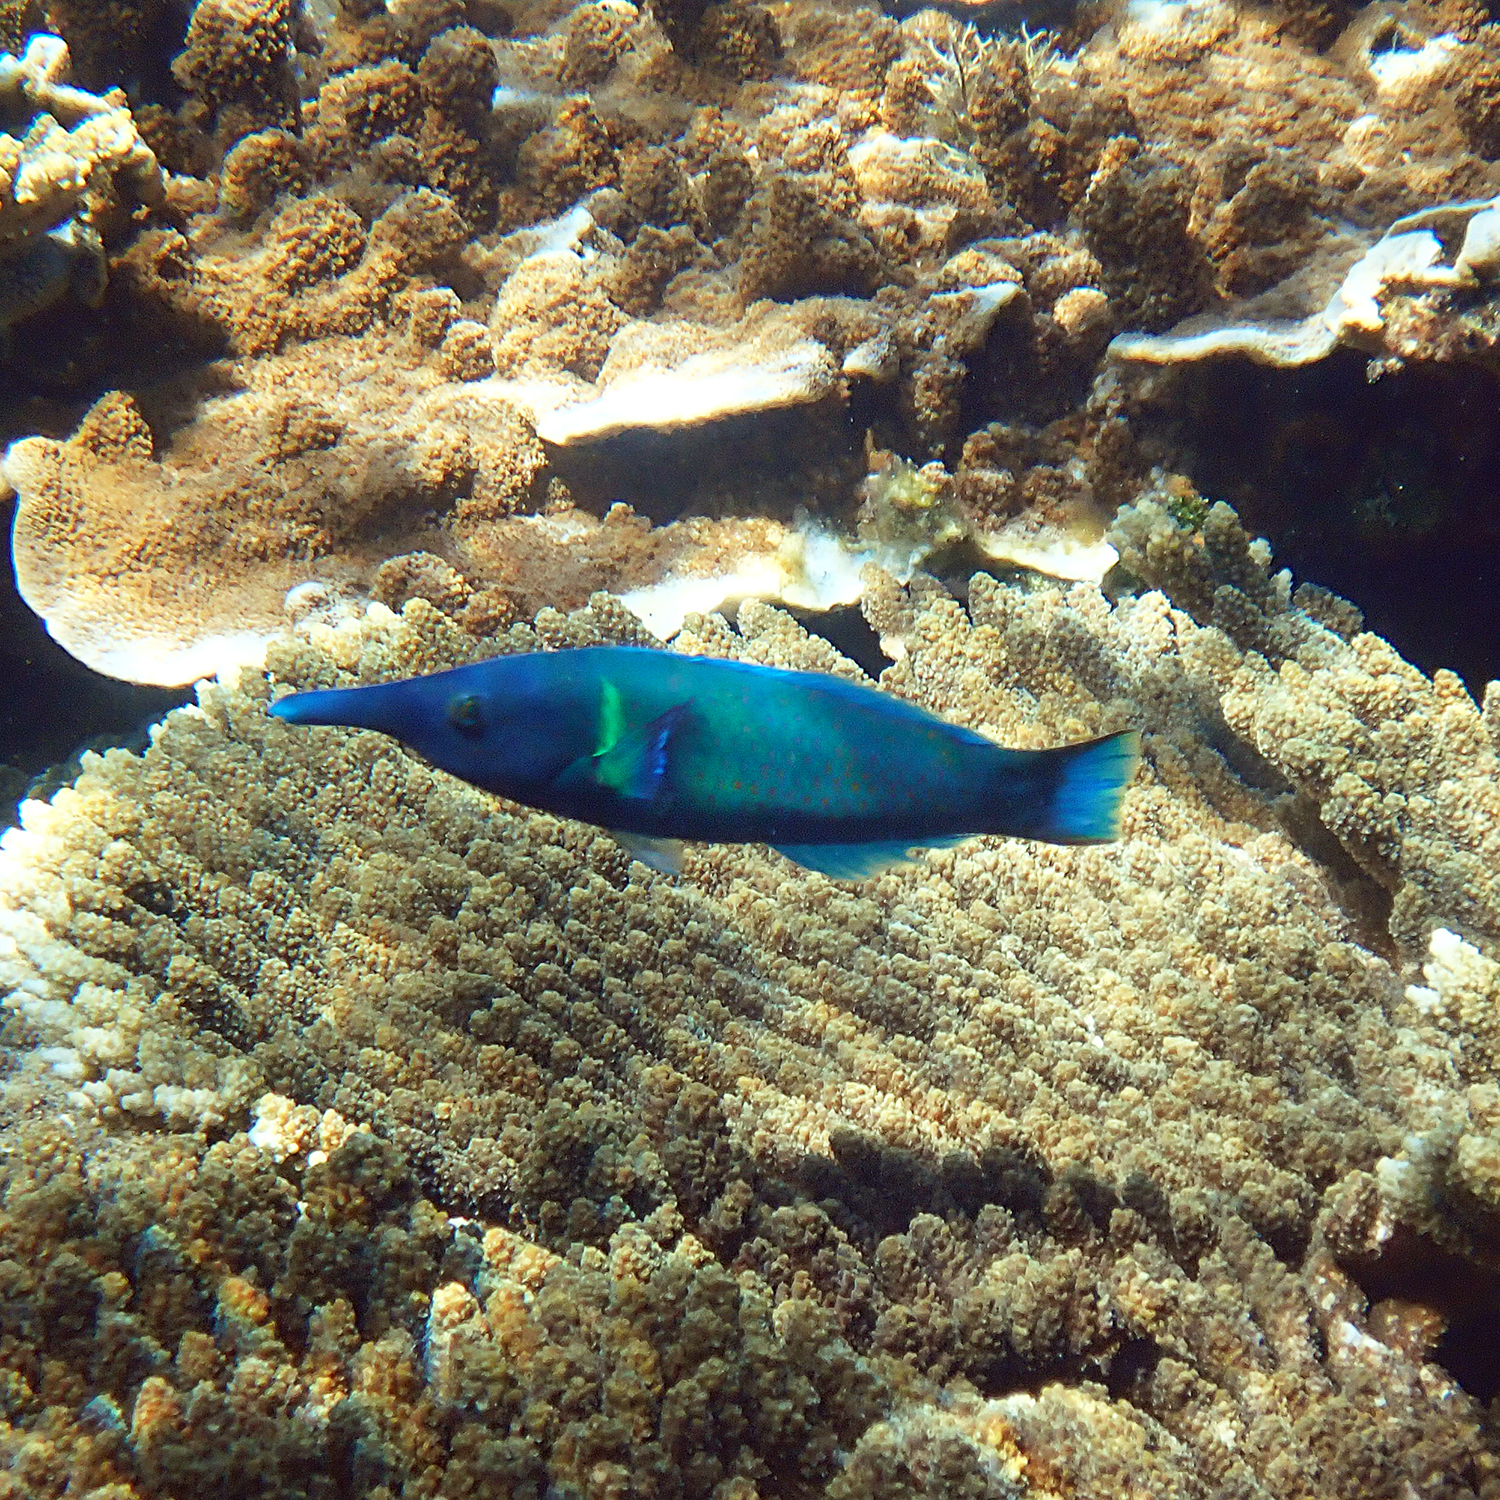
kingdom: Animalia
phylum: Chordata
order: Perciformes
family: Labridae
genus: Gomphosus
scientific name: Gomphosus varius
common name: Bird wrasse
